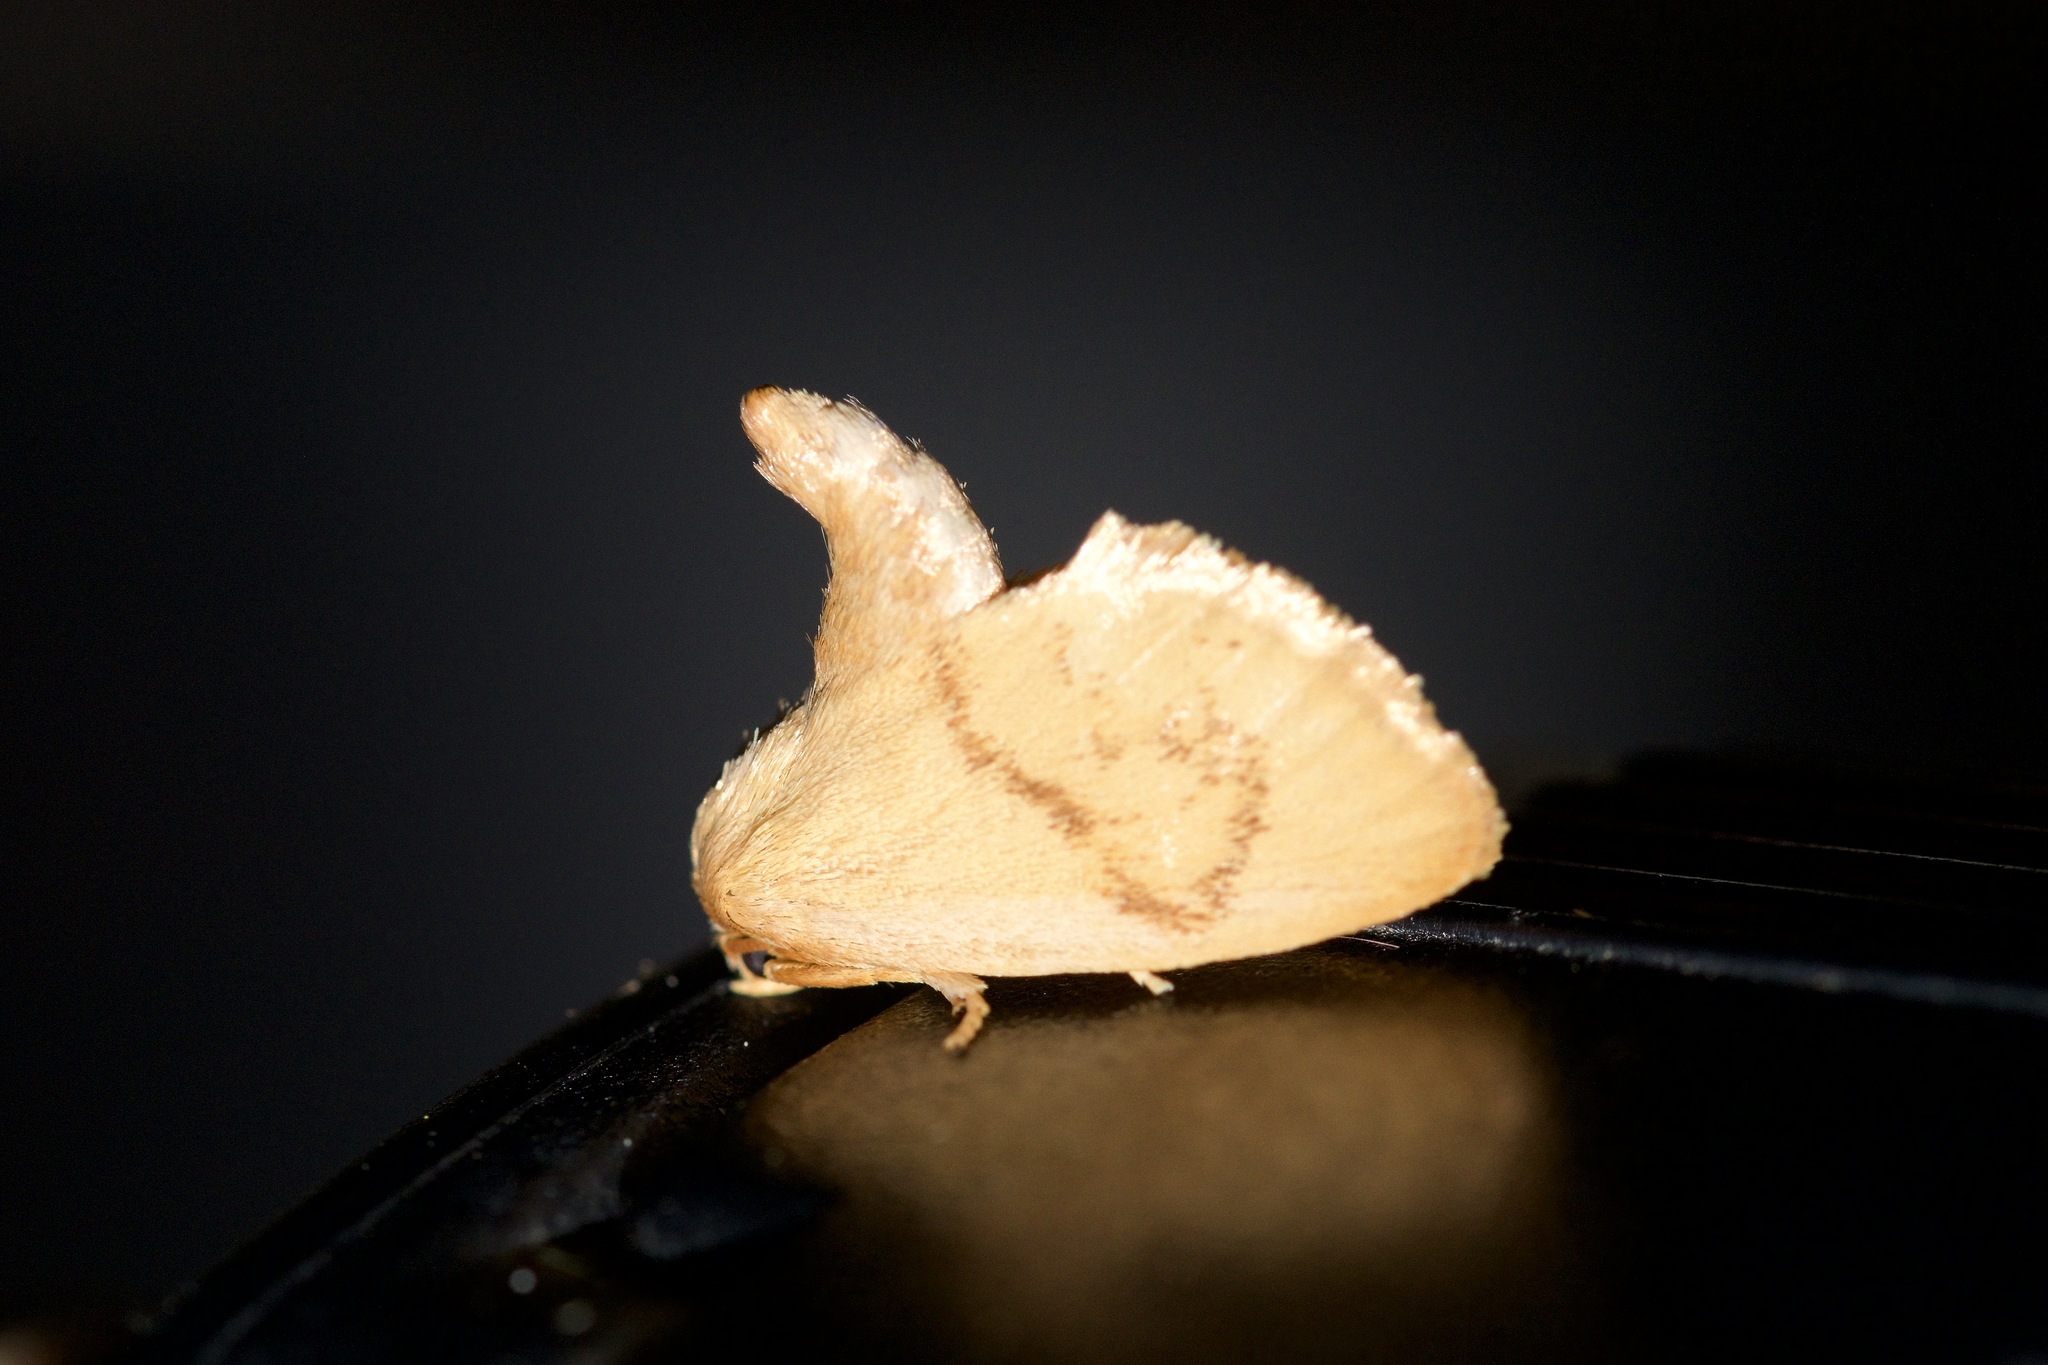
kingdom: Animalia
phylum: Arthropoda
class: Insecta
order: Lepidoptera
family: Limacodidae
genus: Tortricidia
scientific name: Tortricidia flexuosa
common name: Abbreviated button slug moth
